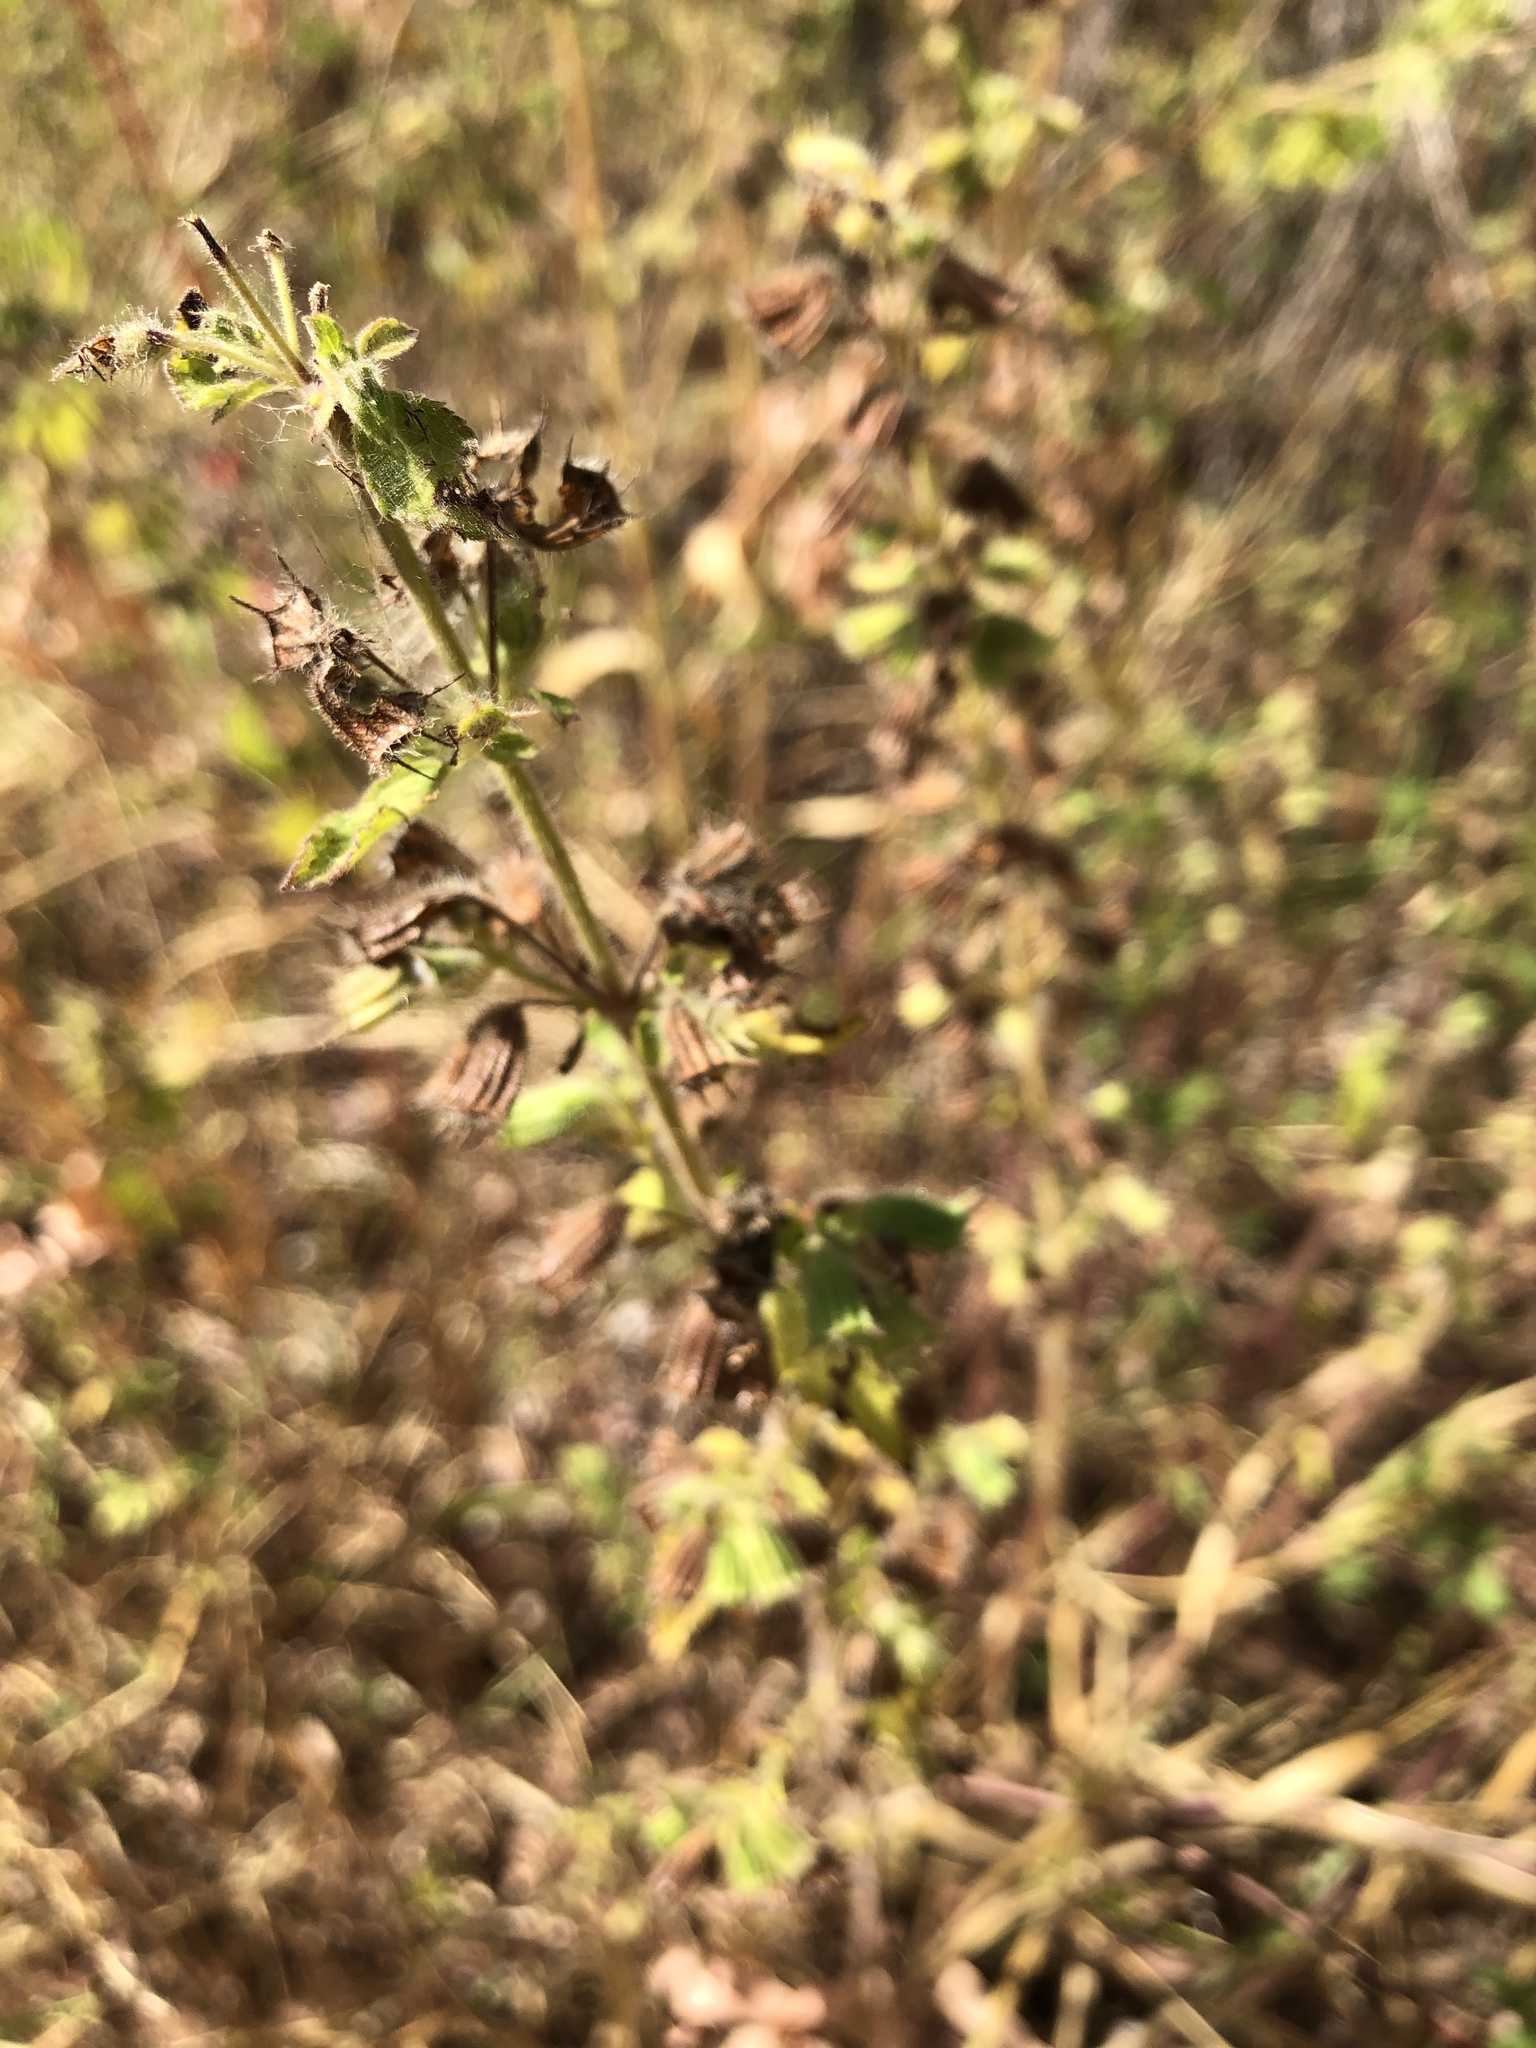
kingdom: Plantae
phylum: Tracheophyta
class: Magnoliopsida
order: Lamiales
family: Lamiaceae
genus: Mesosphaerum
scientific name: Mesosphaerum suaveolens
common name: Pignut
